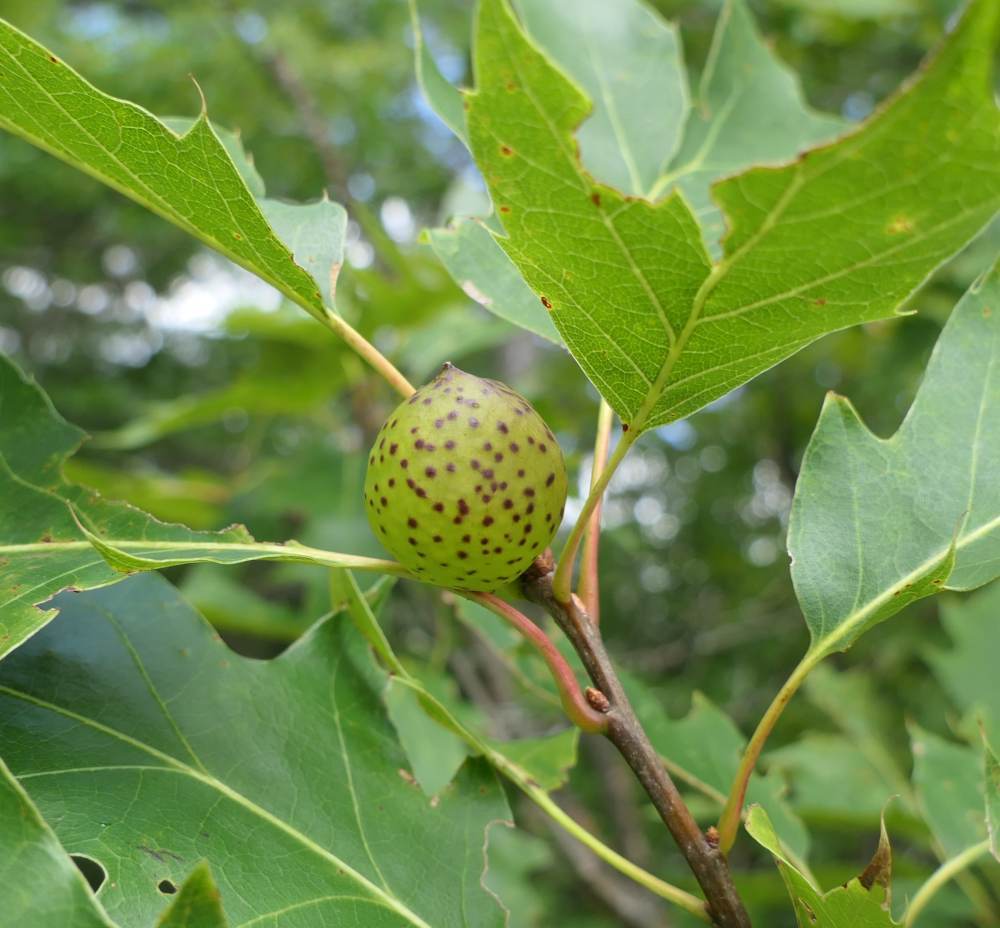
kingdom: Animalia
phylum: Arthropoda
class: Insecta
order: Hymenoptera
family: Cynipidae
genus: Amphibolips
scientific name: Amphibolips
